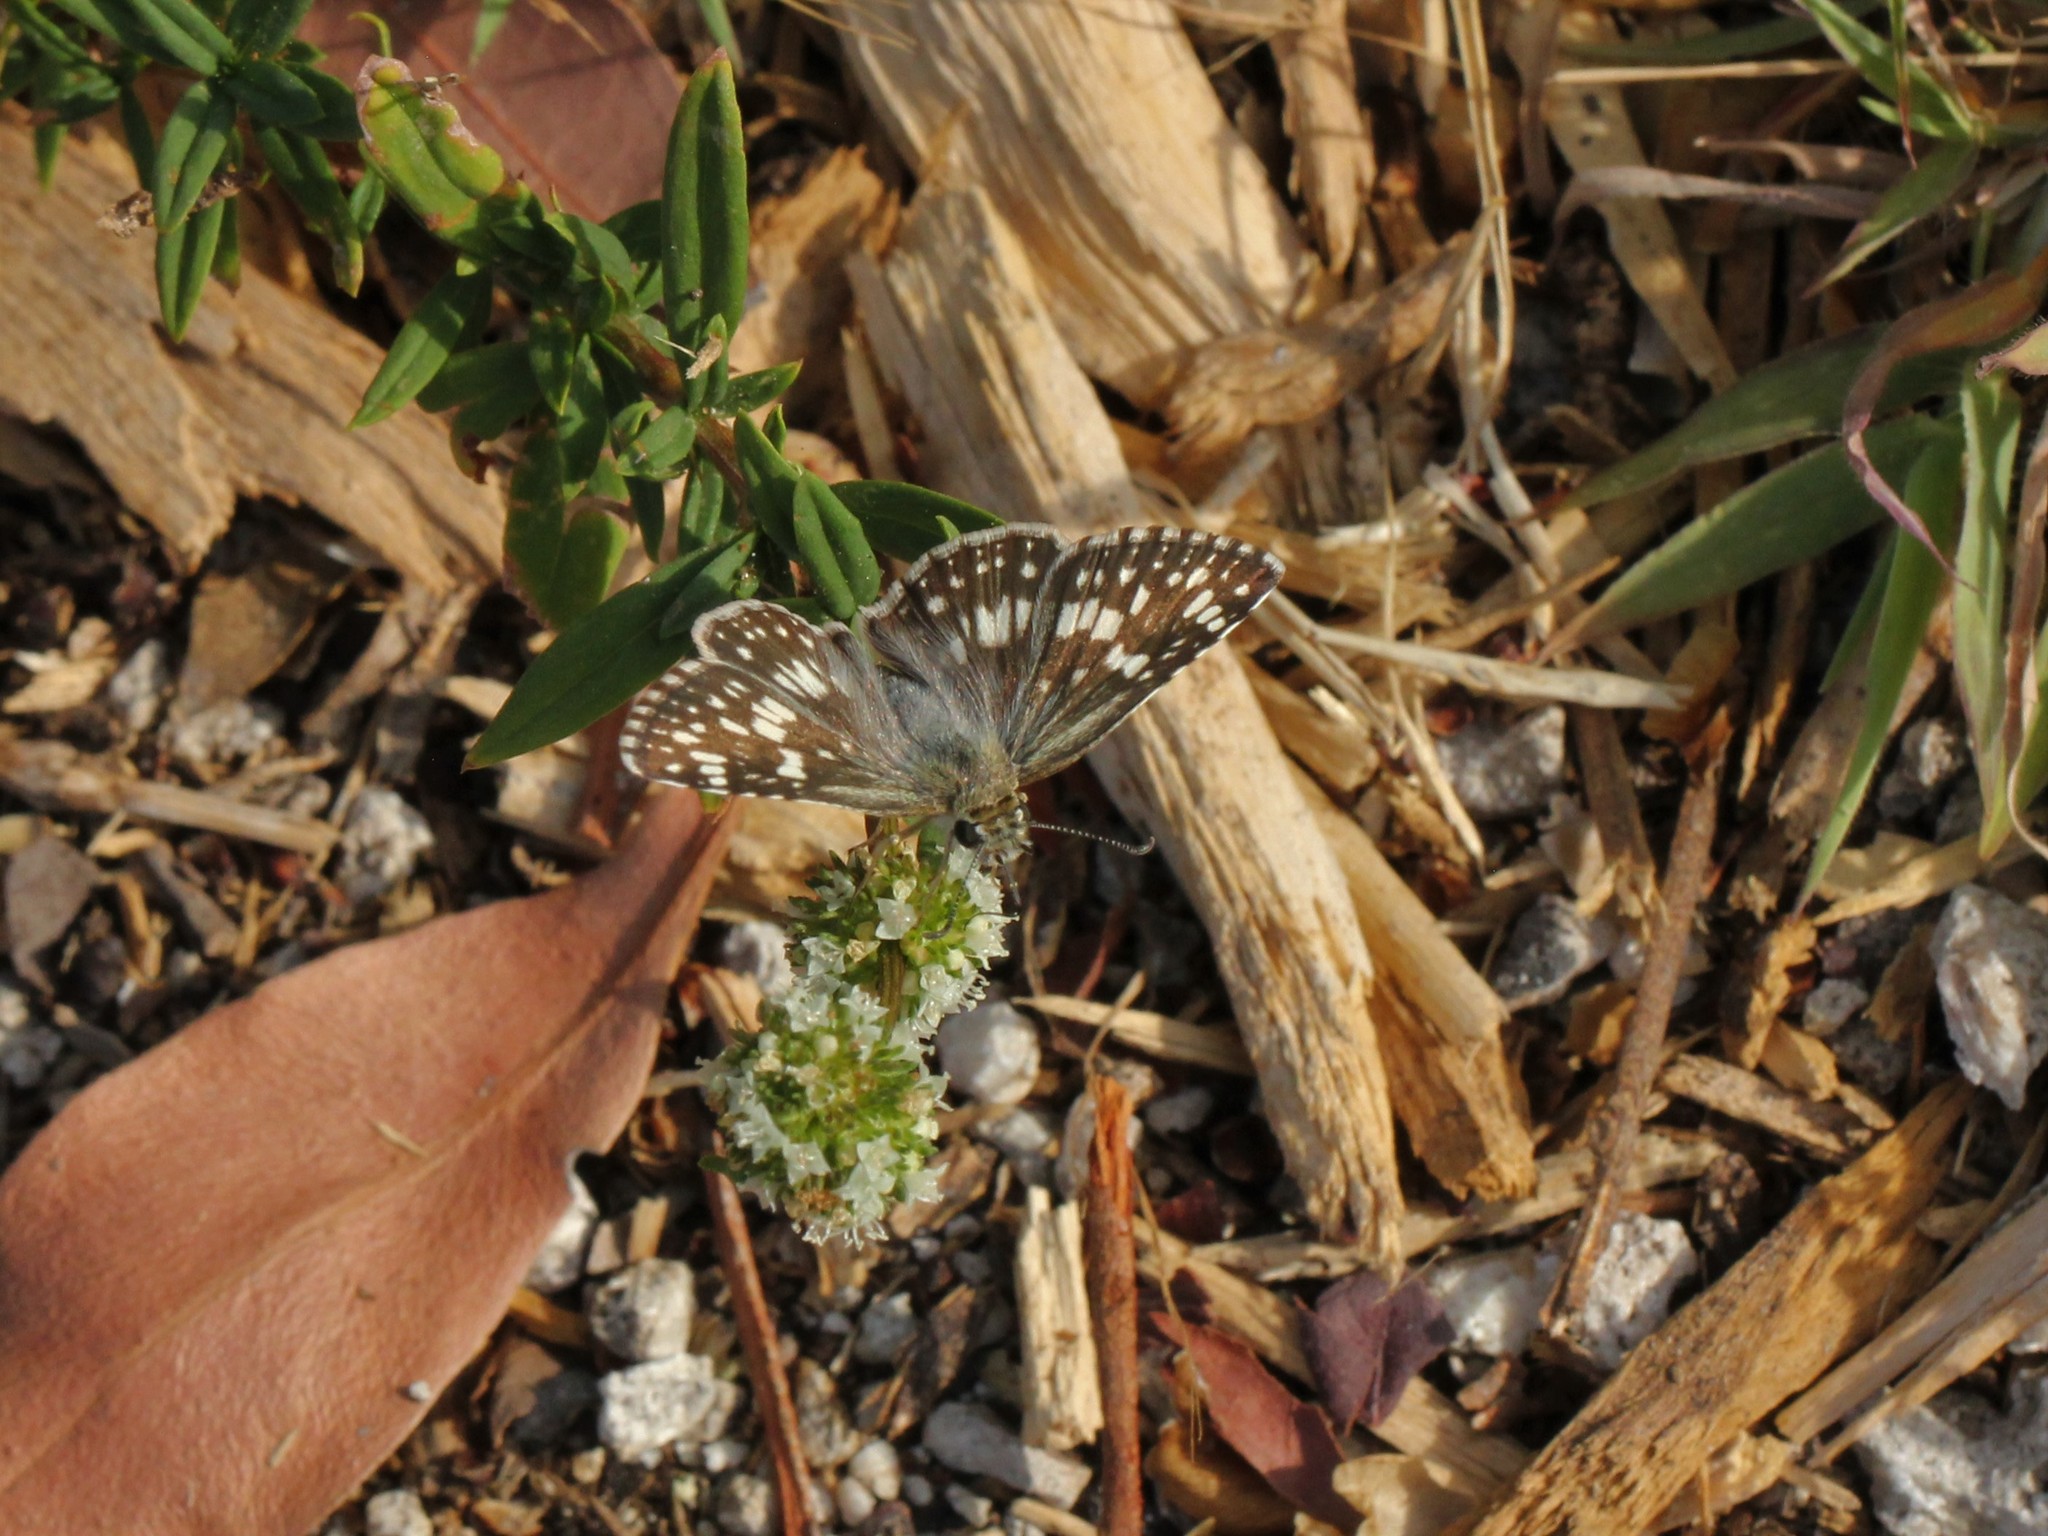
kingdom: Animalia
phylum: Arthropoda
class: Insecta
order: Lepidoptera
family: Hesperiidae
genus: Burnsius
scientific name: Burnsius albezens
